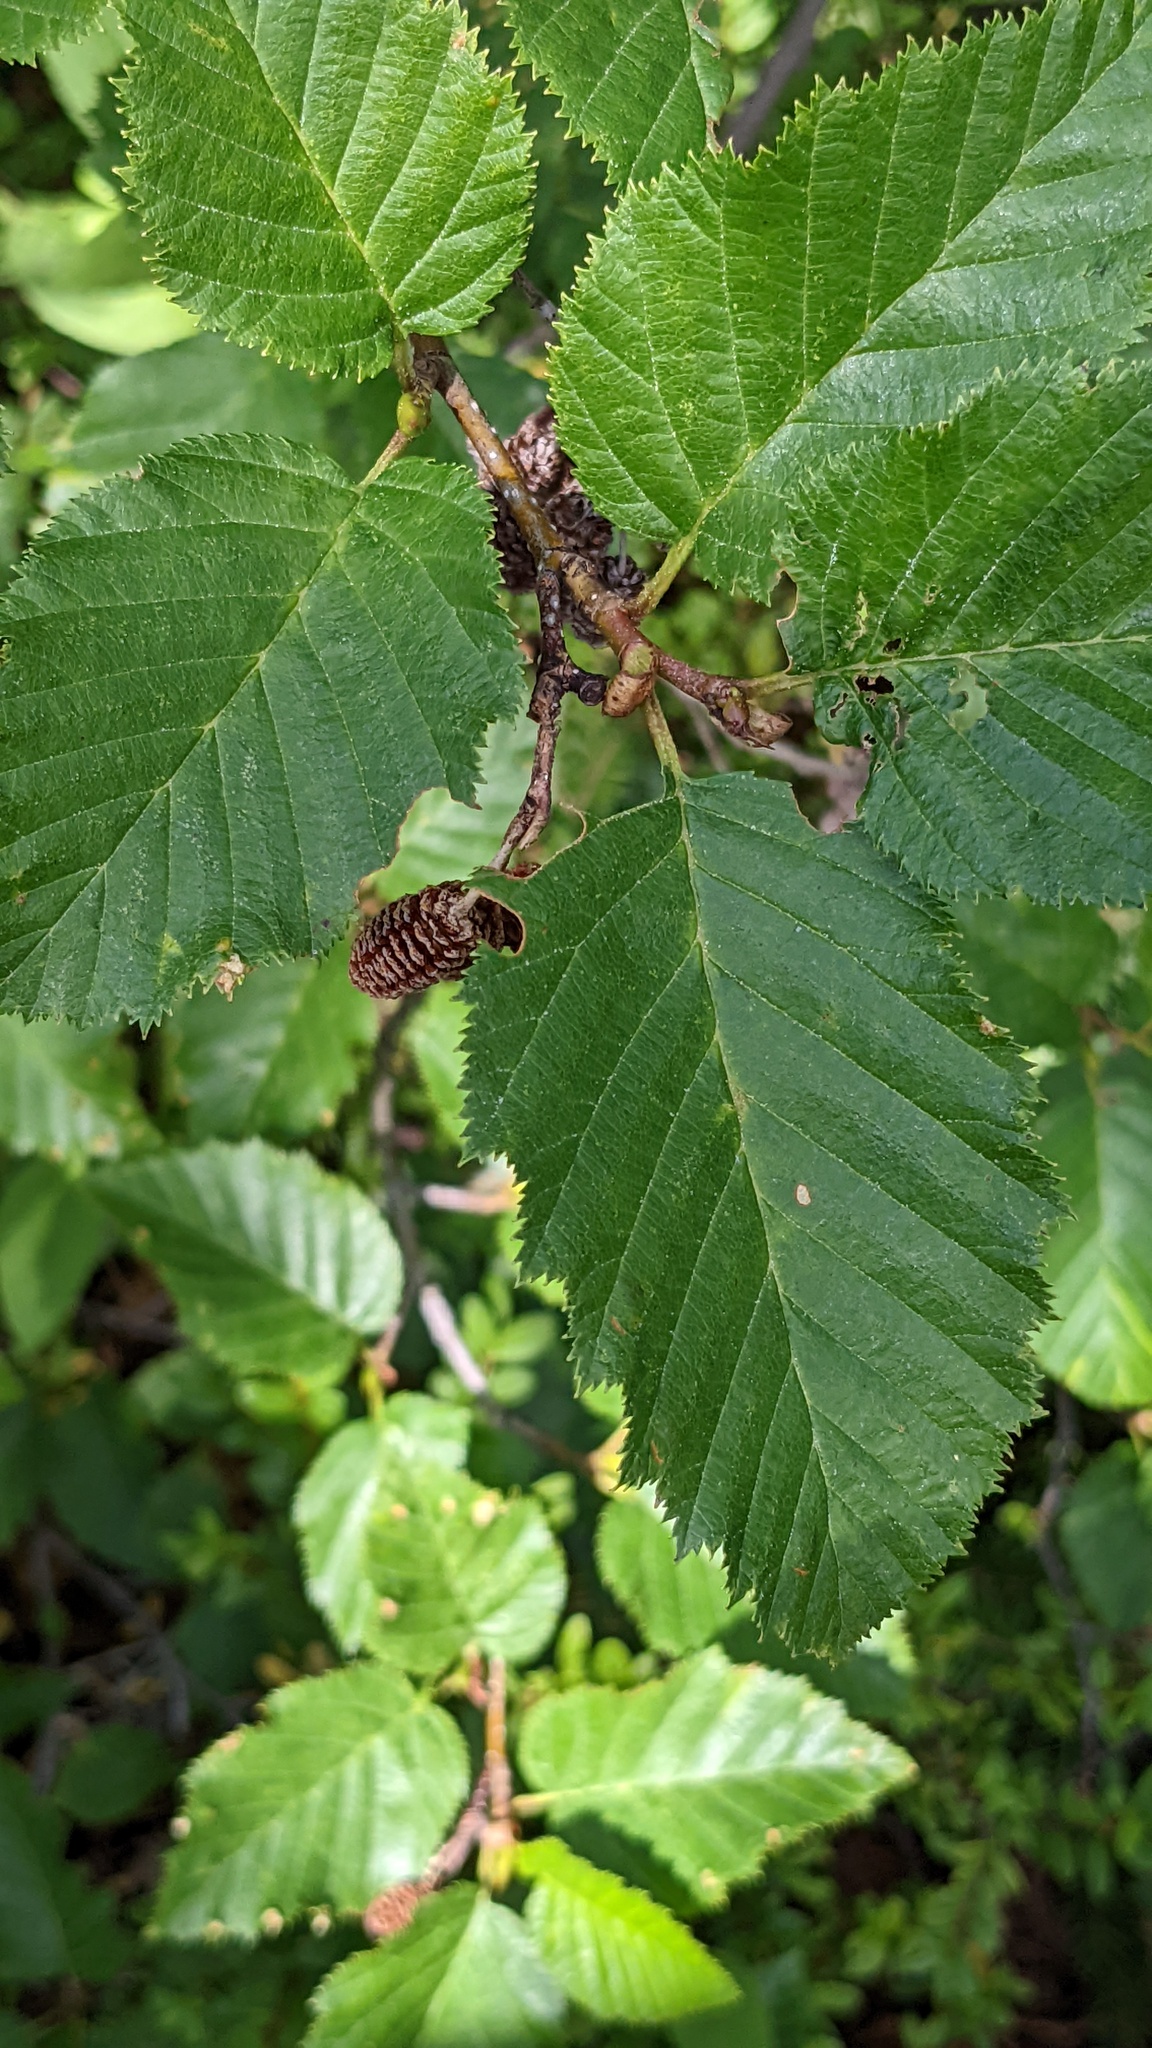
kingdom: Plantae
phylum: Tracheophyta
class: Magnoliopsida
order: Fagales
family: Betulaceae
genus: Alnus
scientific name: Alnus alnobetula
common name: Green alder
